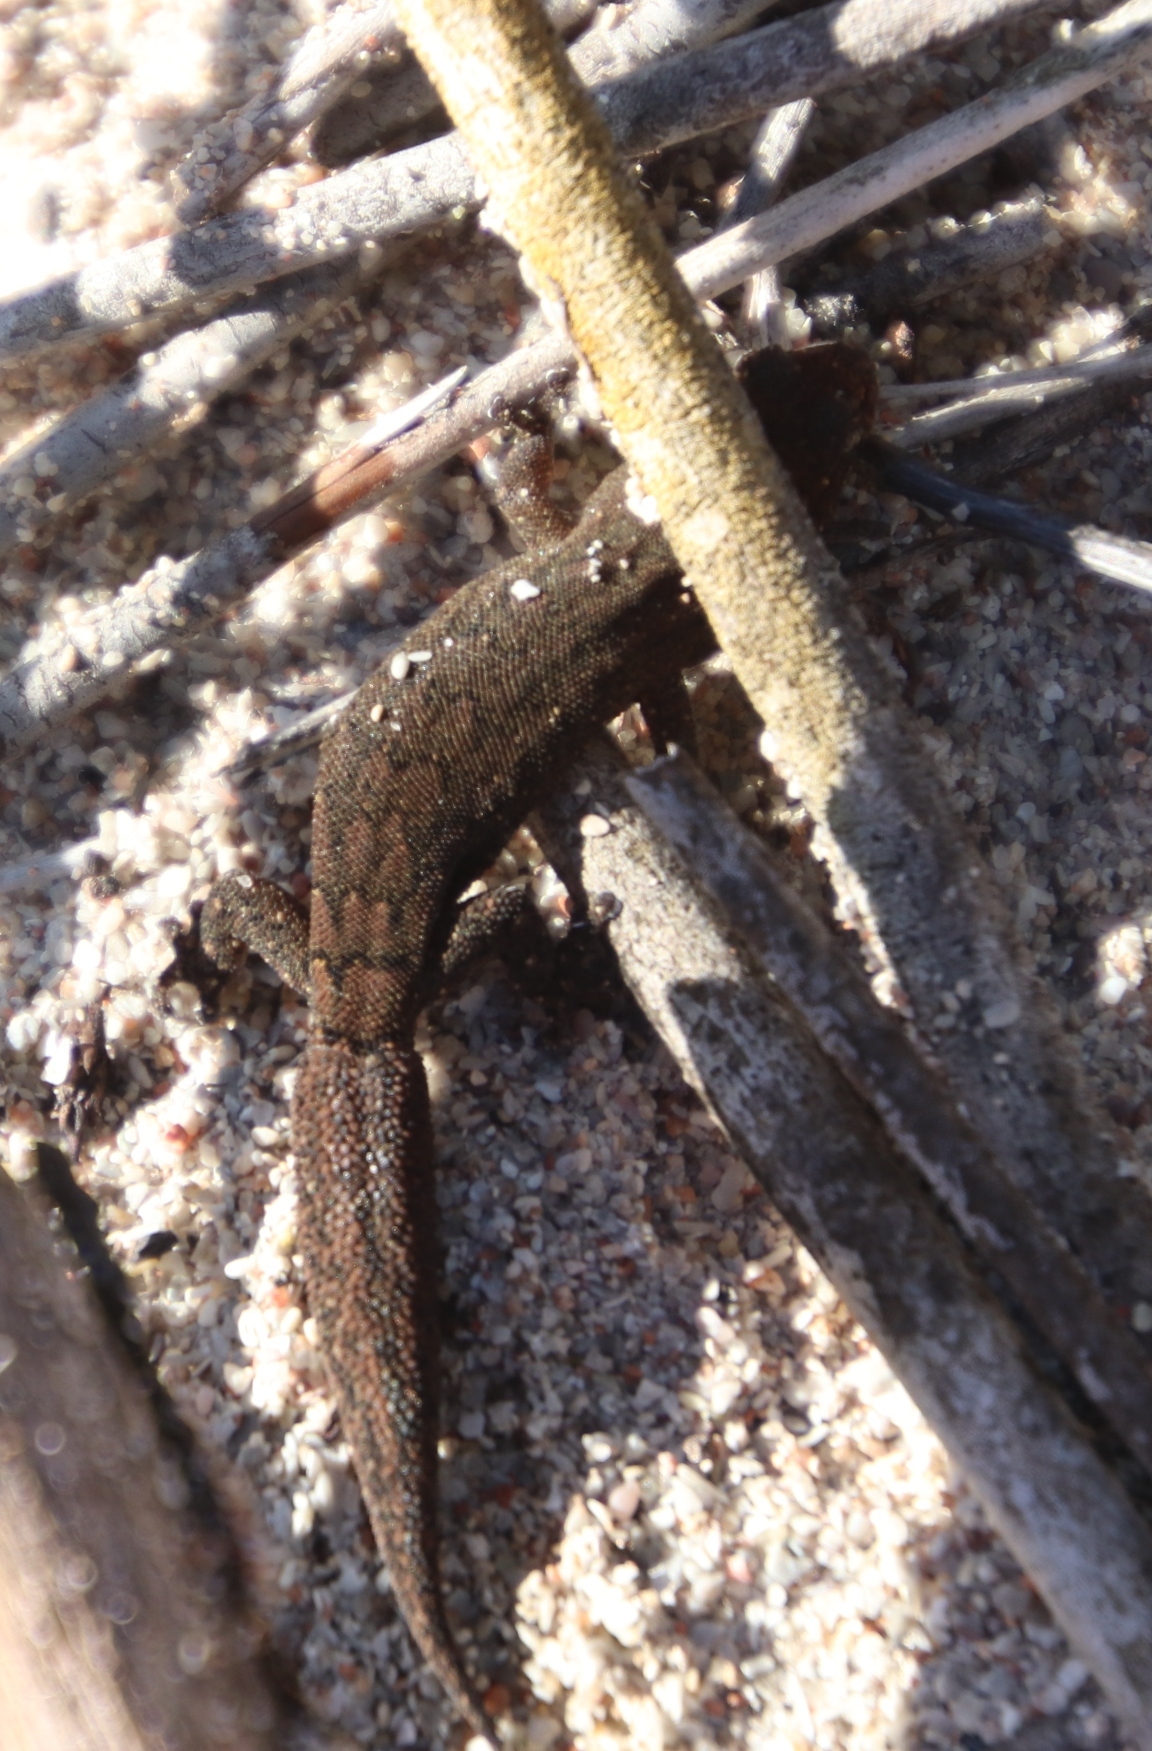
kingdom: Animalia
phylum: Chordata
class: Squamata
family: Gekkonidae
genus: Goggia
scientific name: Goggia incognita
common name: Cryptic pygmy gecko
